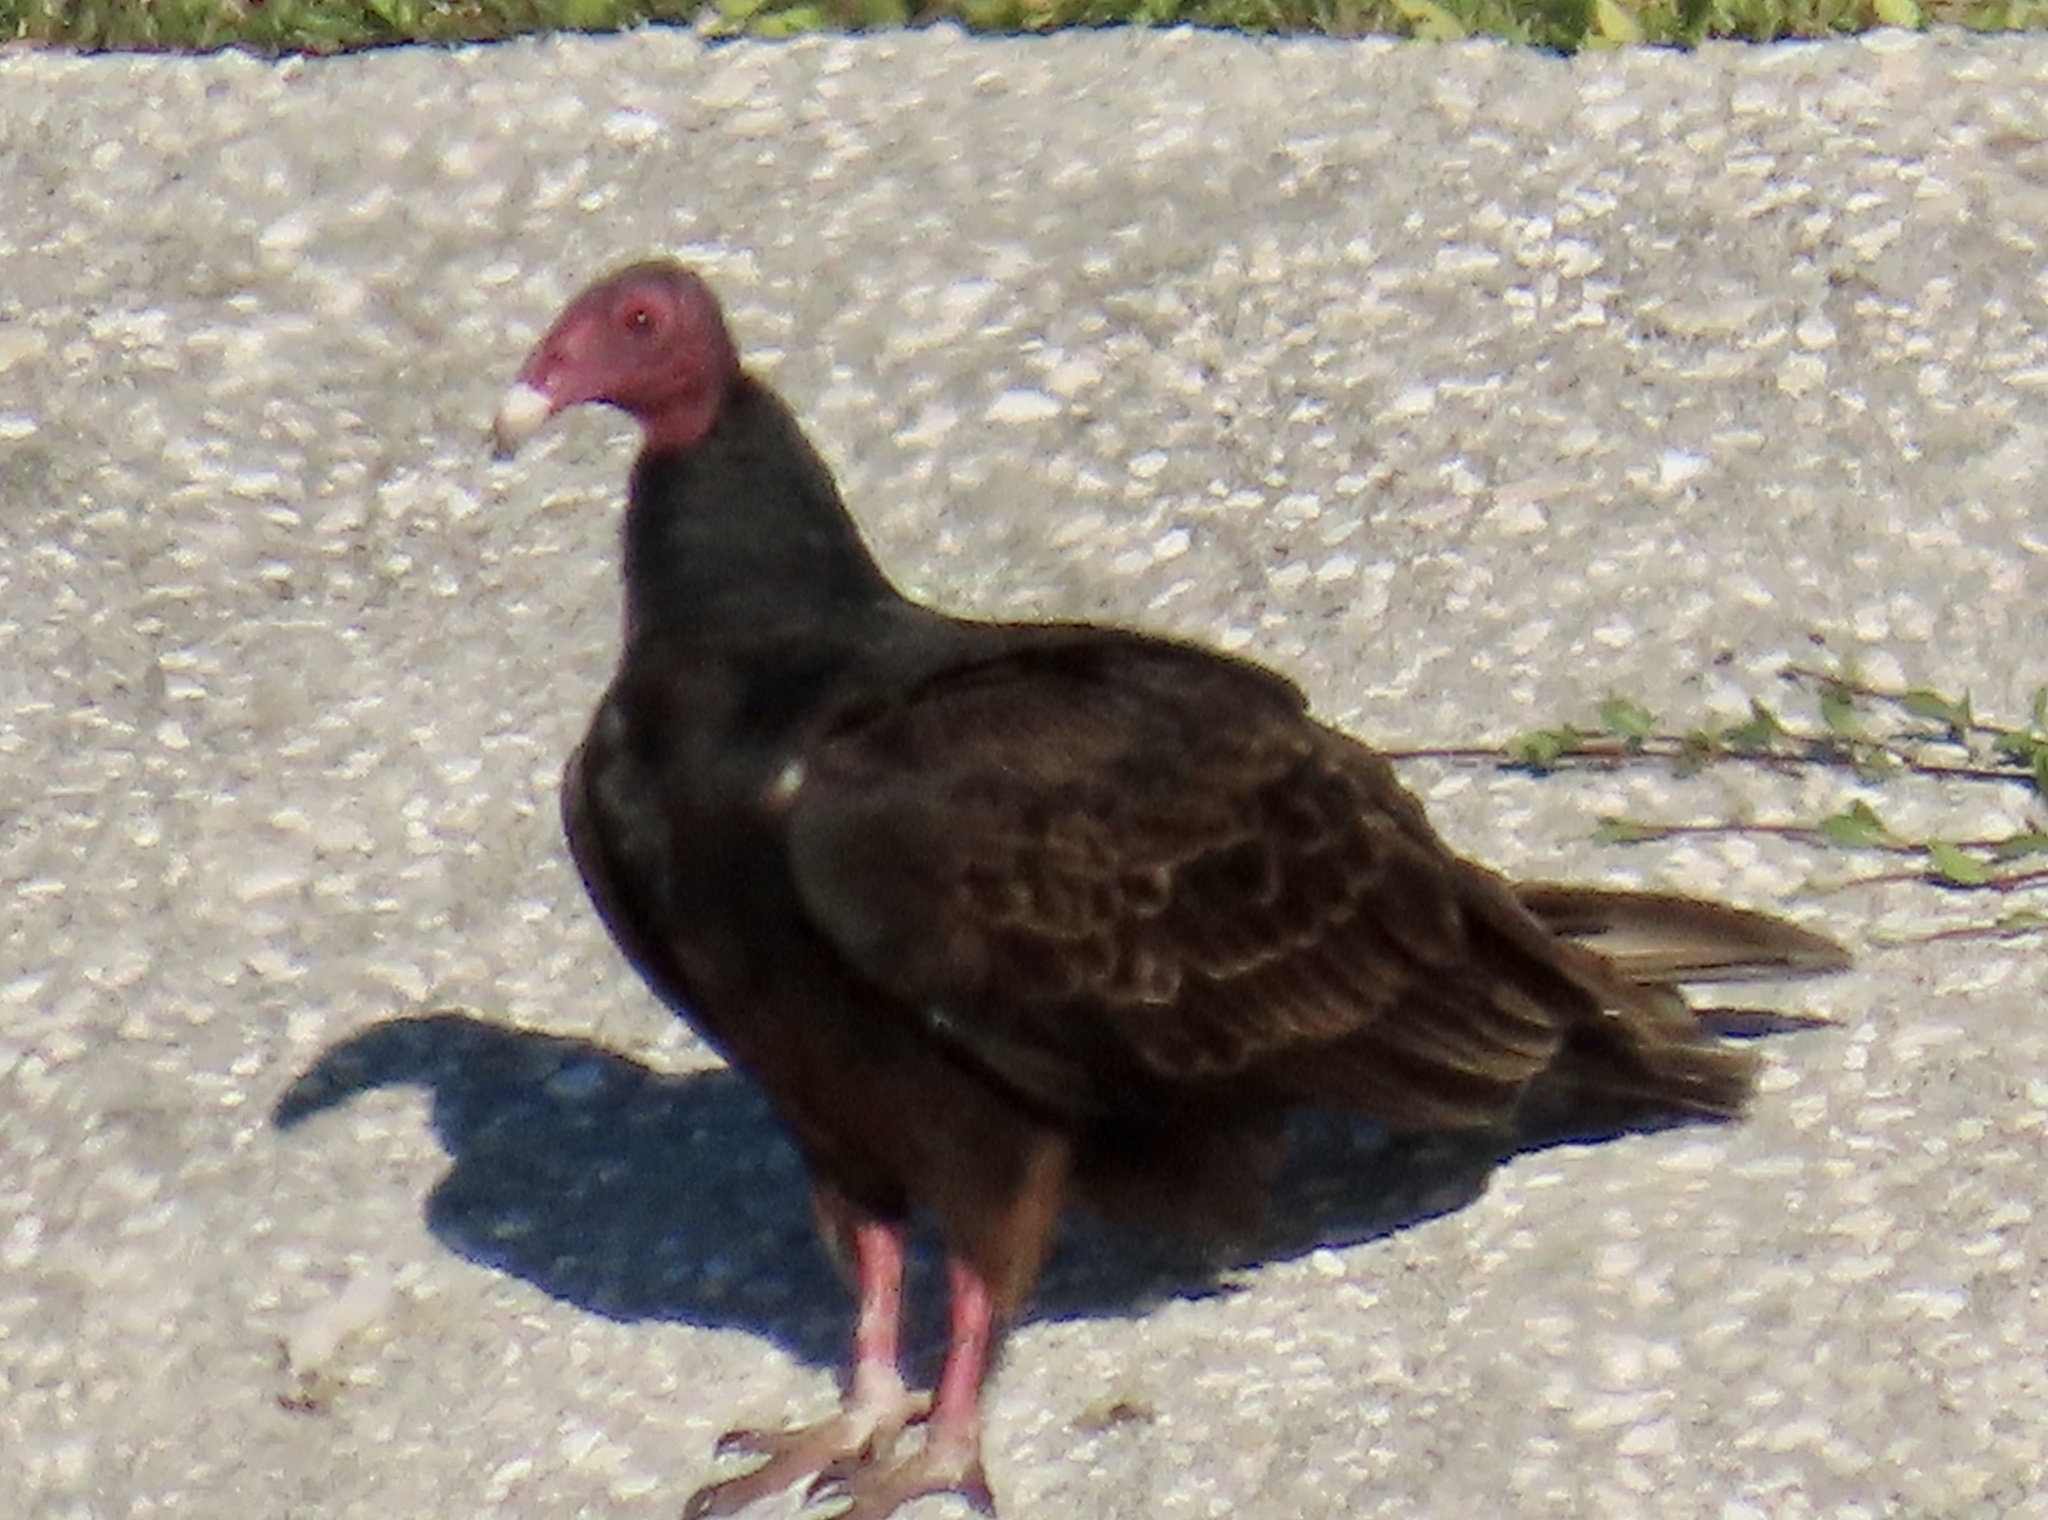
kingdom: Animalia
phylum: Chordata
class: Aves
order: Accipitriformes
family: Cathartidae
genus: Cathartes
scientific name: Cathartes aura
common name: Turkey vulture
